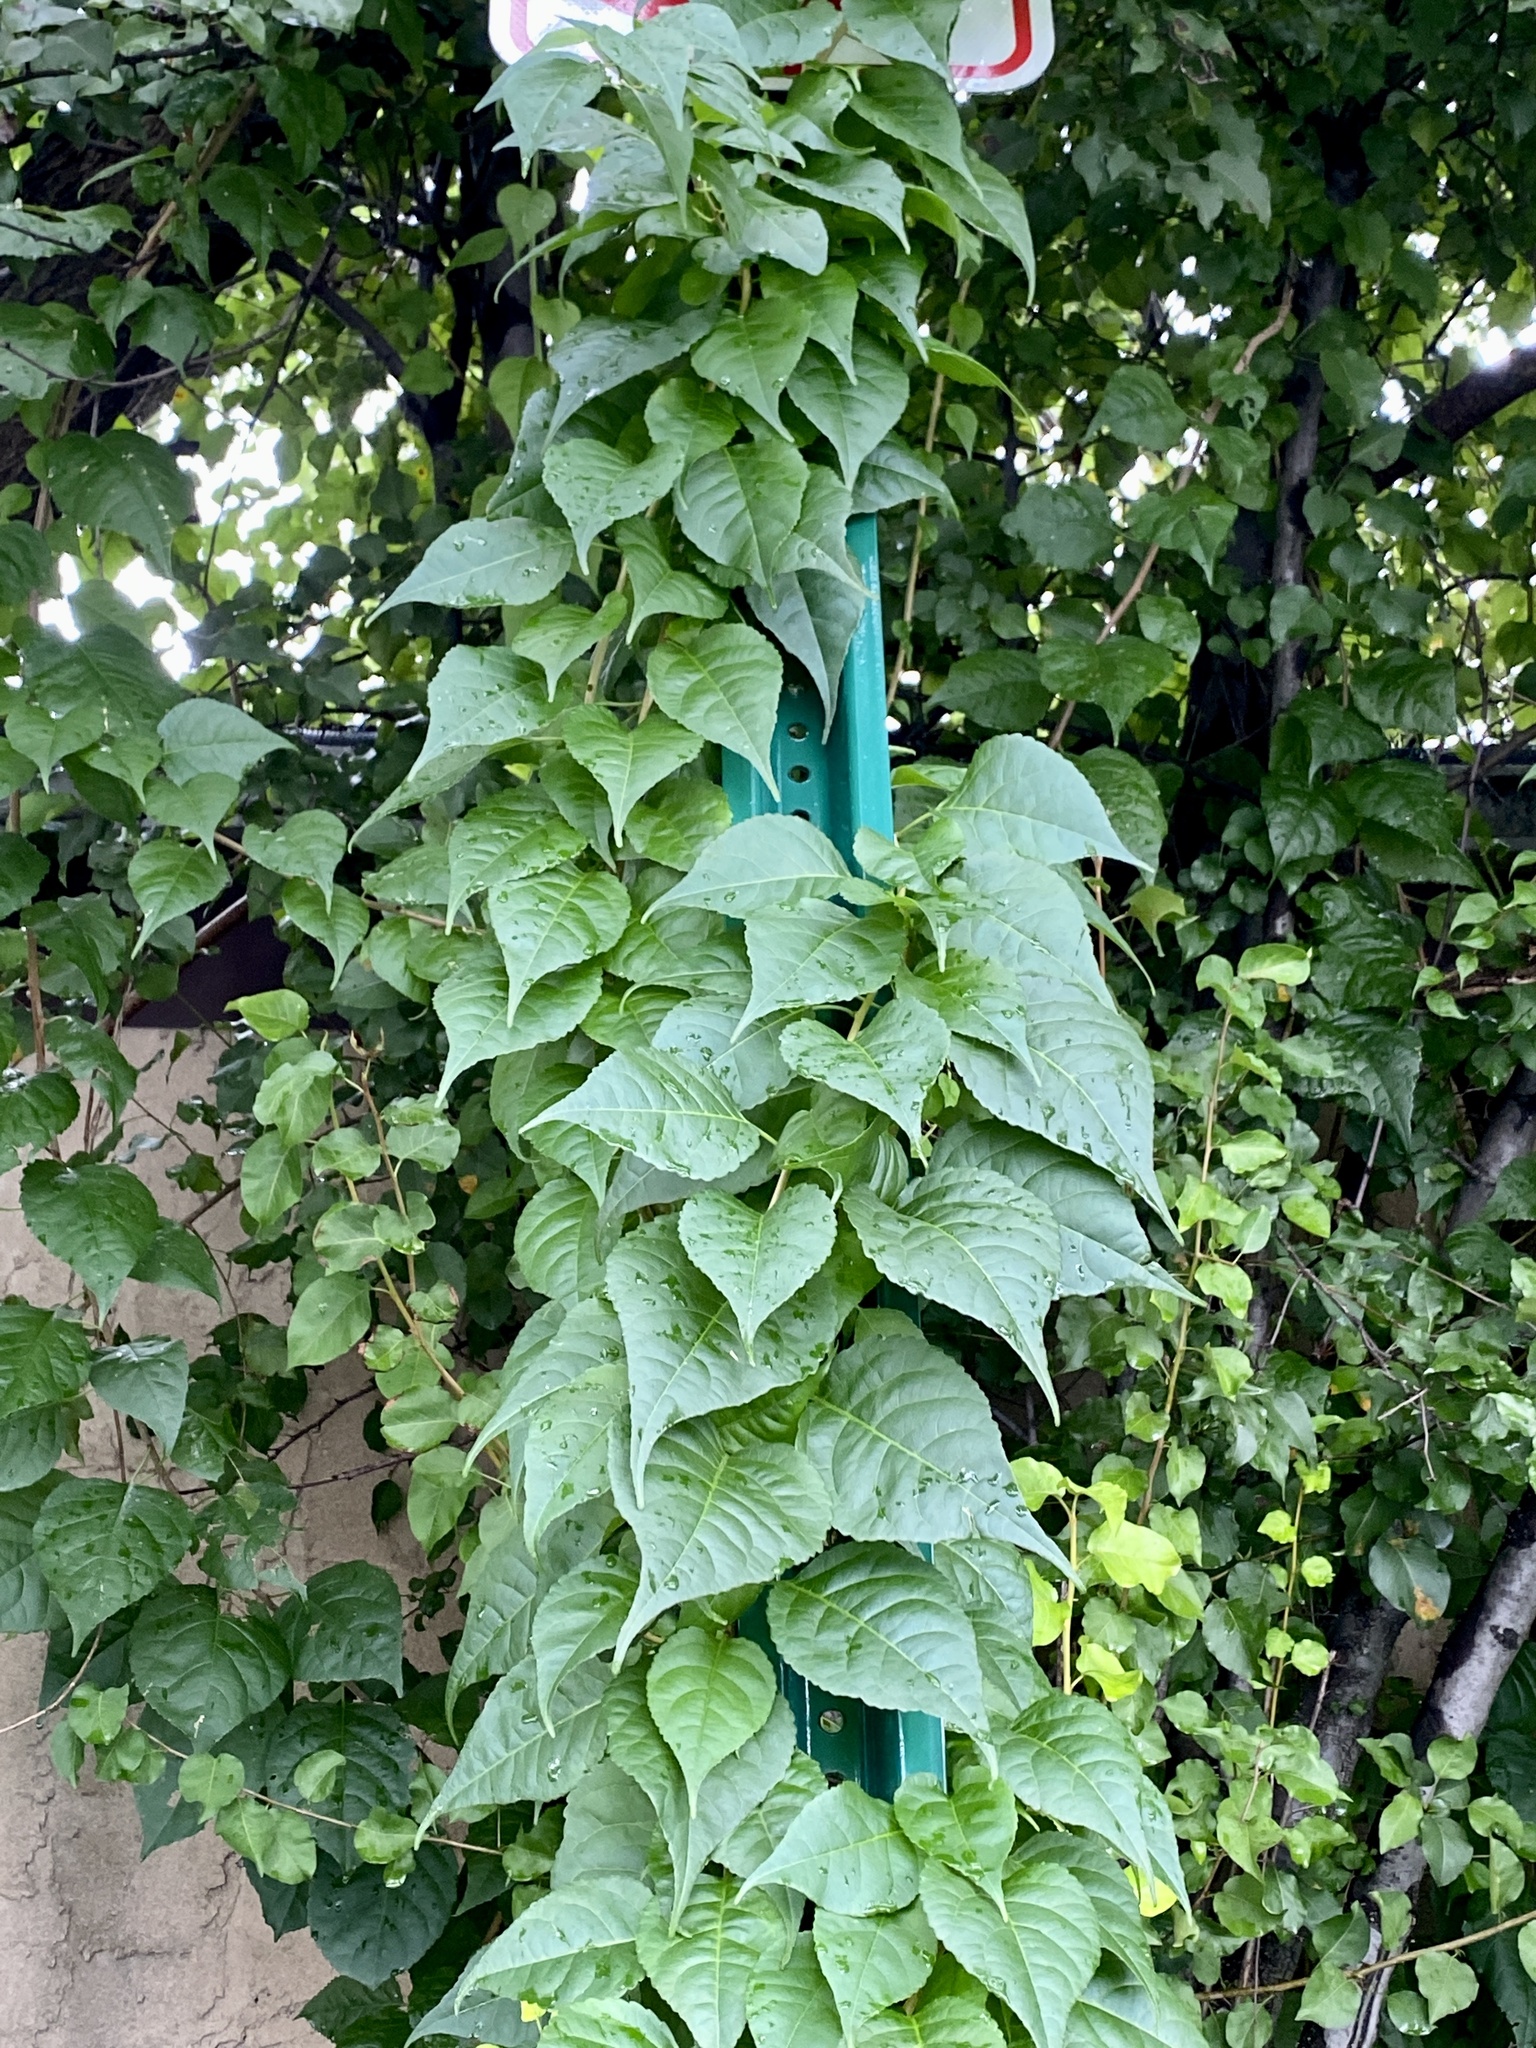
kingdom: Plantae
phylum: Tracheophyta
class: Magnoliopsida
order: Celastrales
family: Celastraceae
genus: Celastrus
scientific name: Celastrus orbiculatus
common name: Oriental bittersweet
